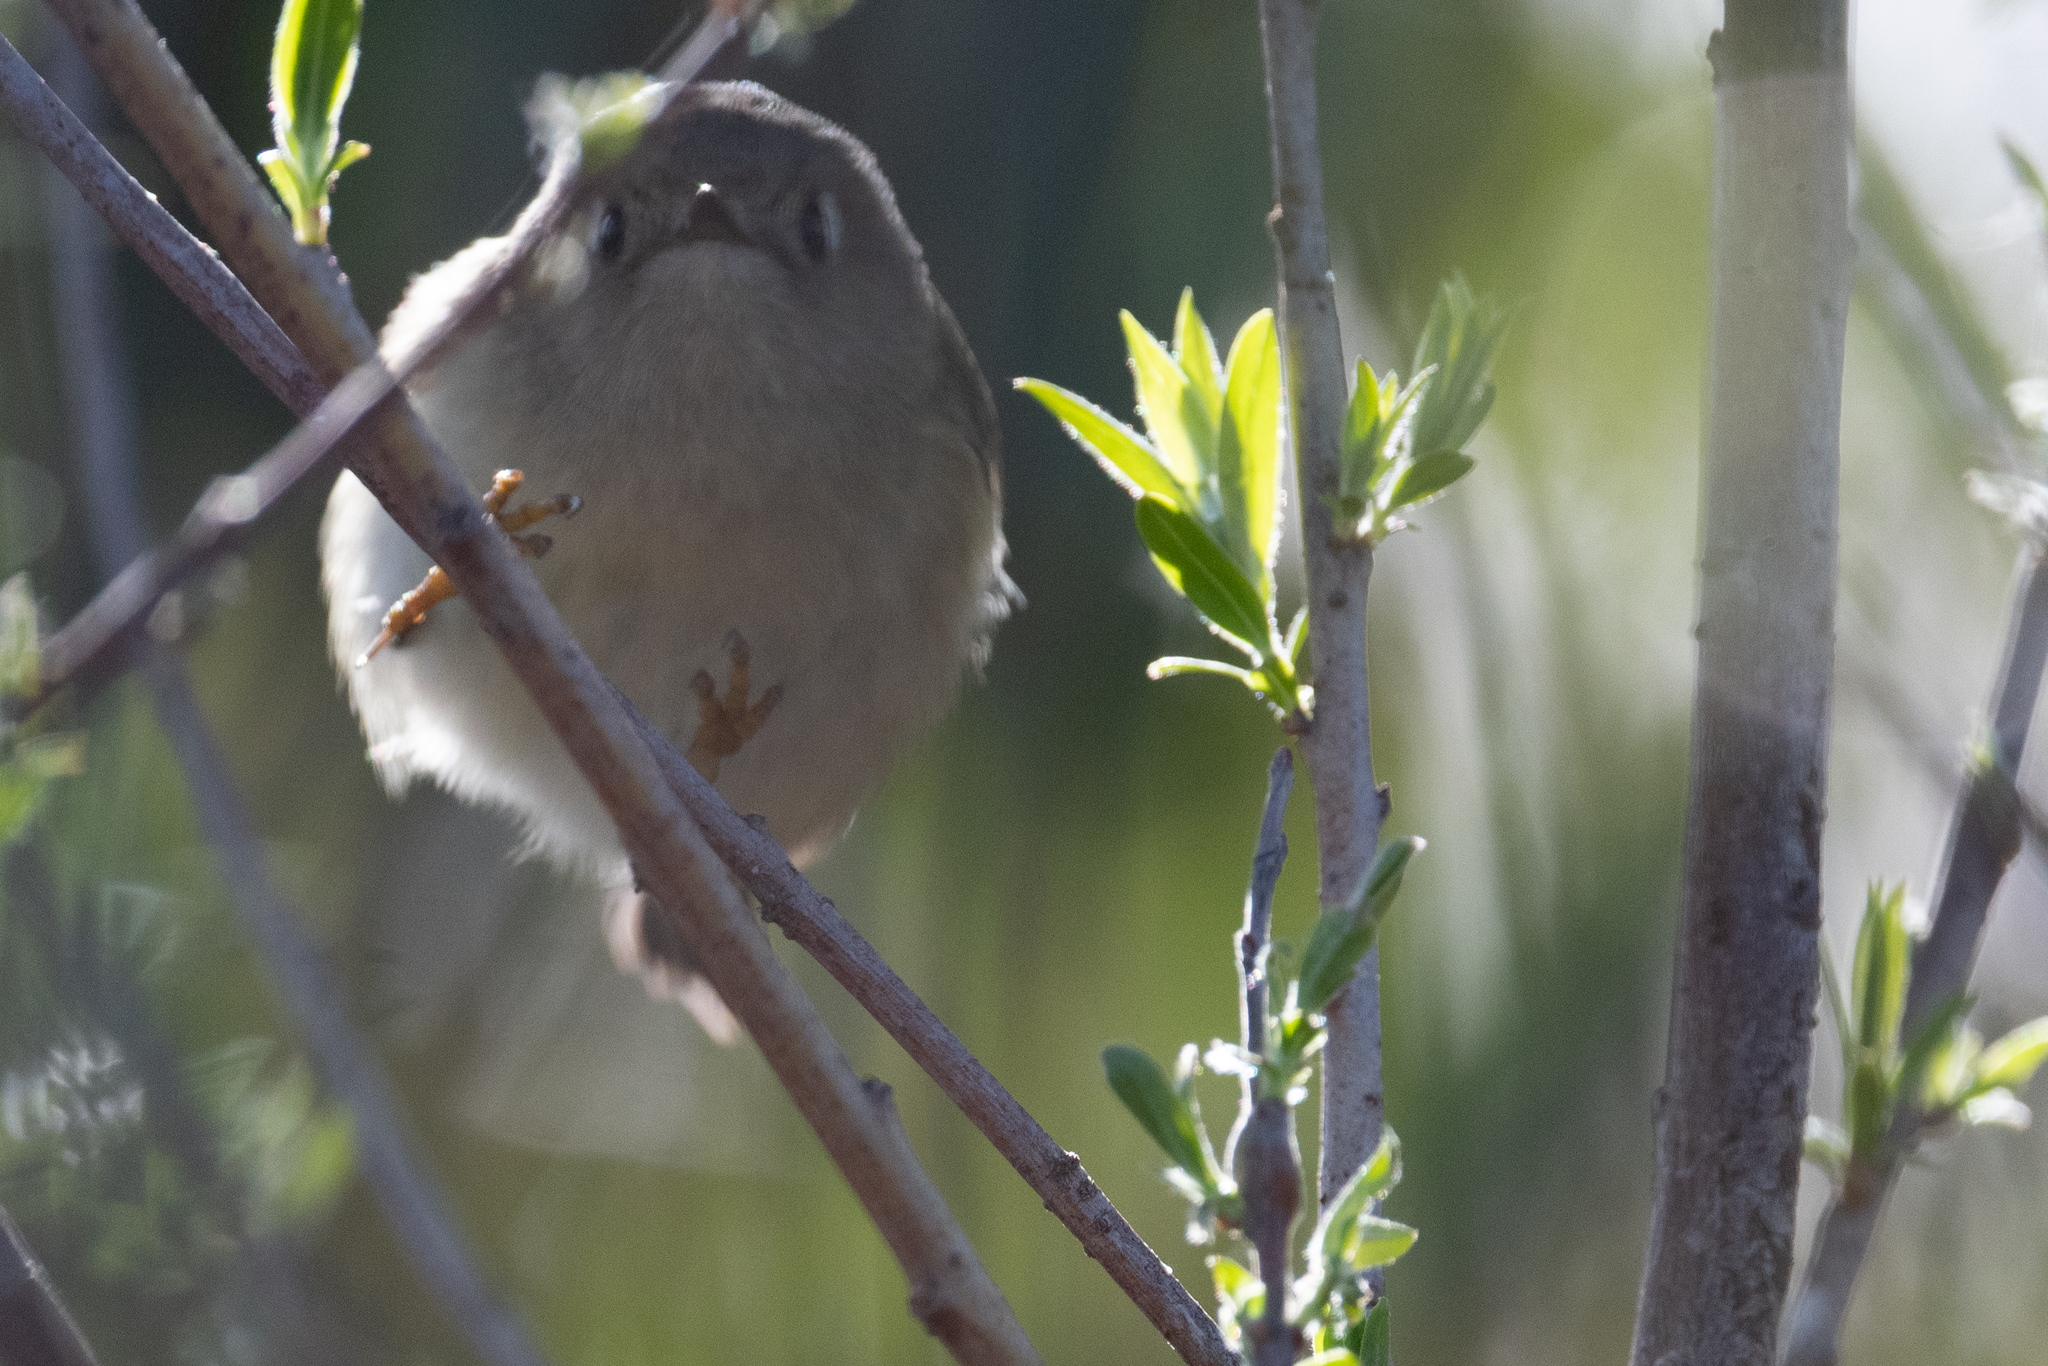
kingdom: Animalia
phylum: Chordata
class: Aves
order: Passeriformes
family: Regulidae
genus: Regulus
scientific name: Regulus calendula
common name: Ruby-crowned kinglet
